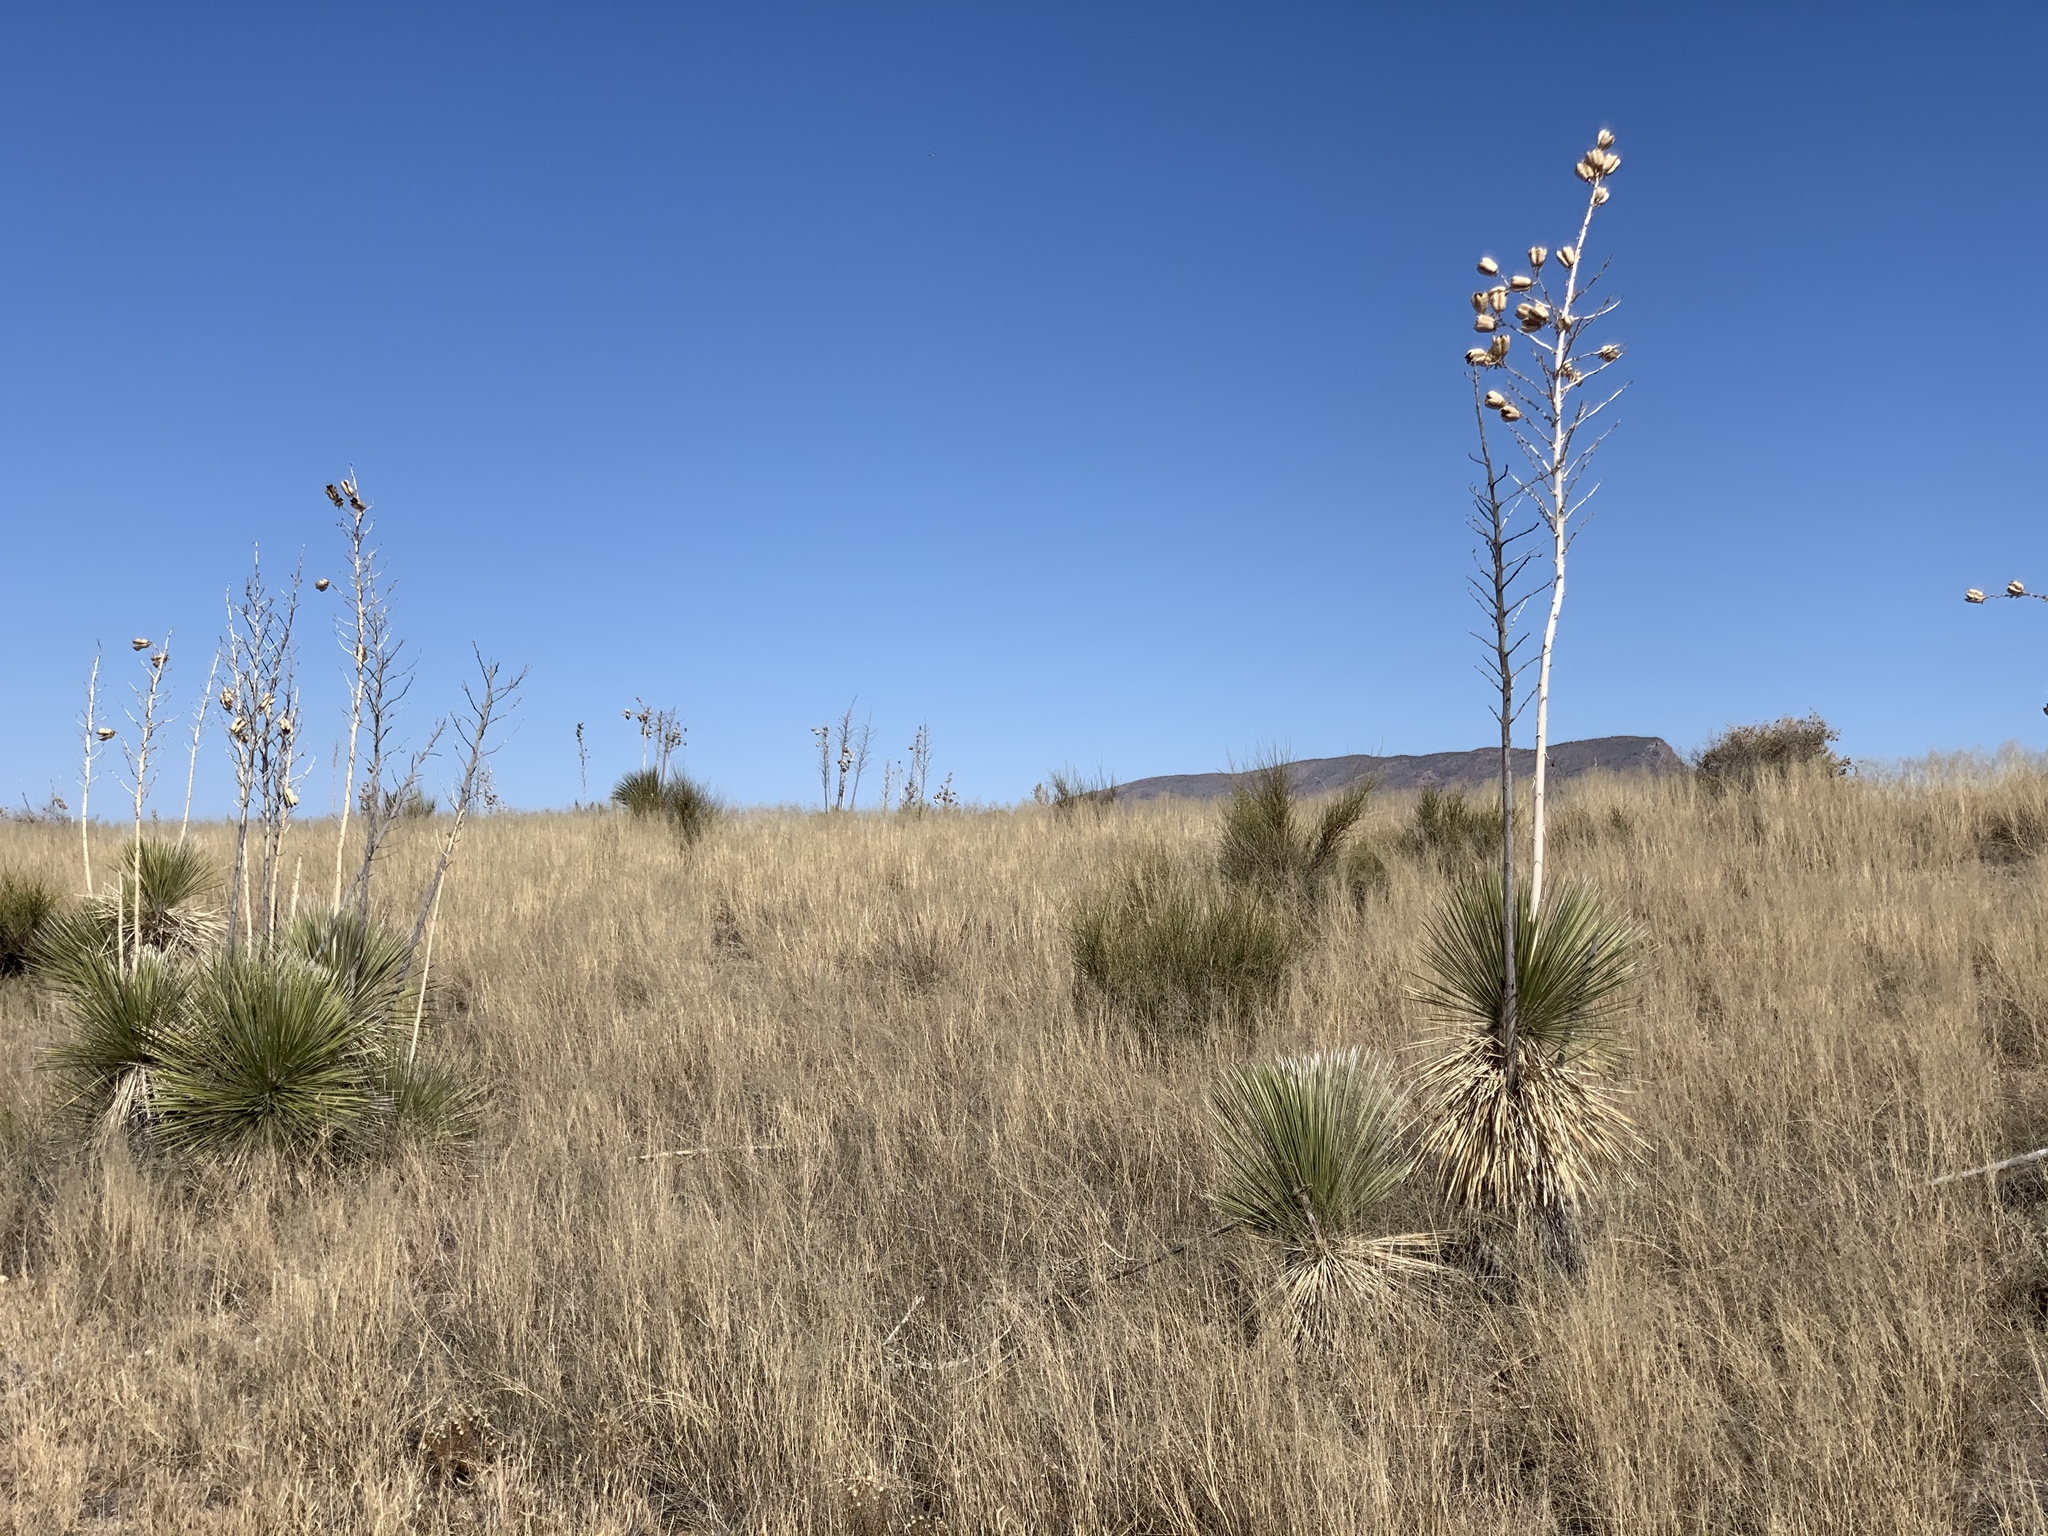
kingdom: Plantae
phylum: Tracheophyta
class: Liliopsida
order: Asparagales
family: Asparagaceae
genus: Yucca
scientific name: Yucca elata
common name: Palmella
